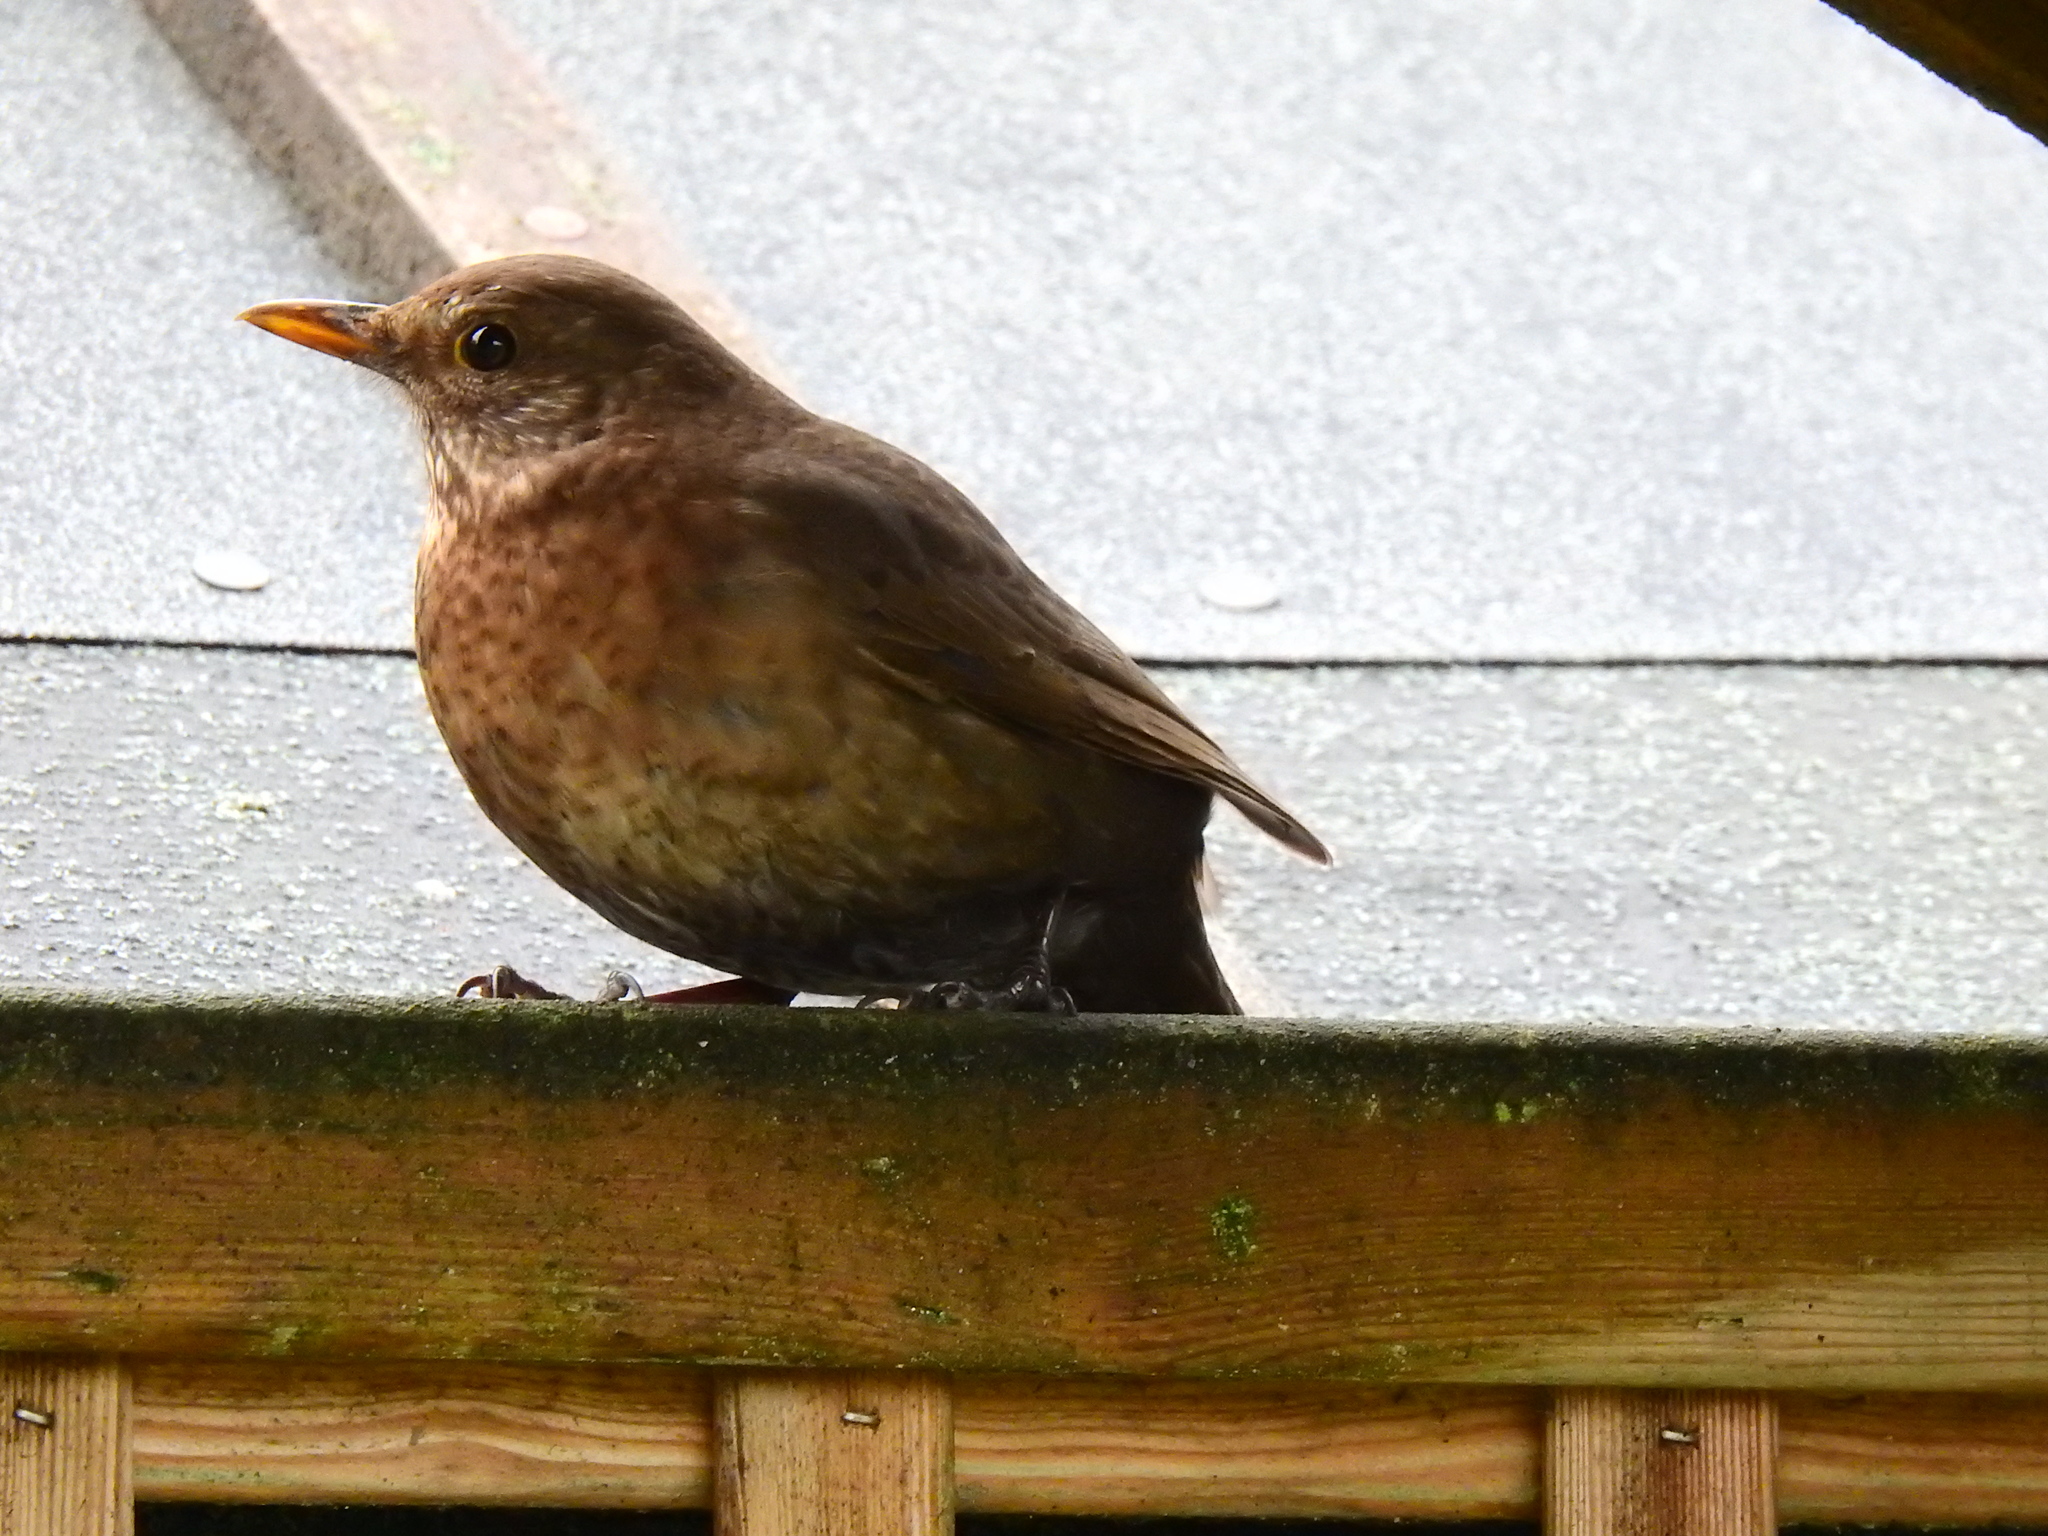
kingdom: Animalia
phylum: Chordata
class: Aves
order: Passeriformes
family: Turdidae
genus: Turdus
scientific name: Turdus merula
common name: Common blackbird
